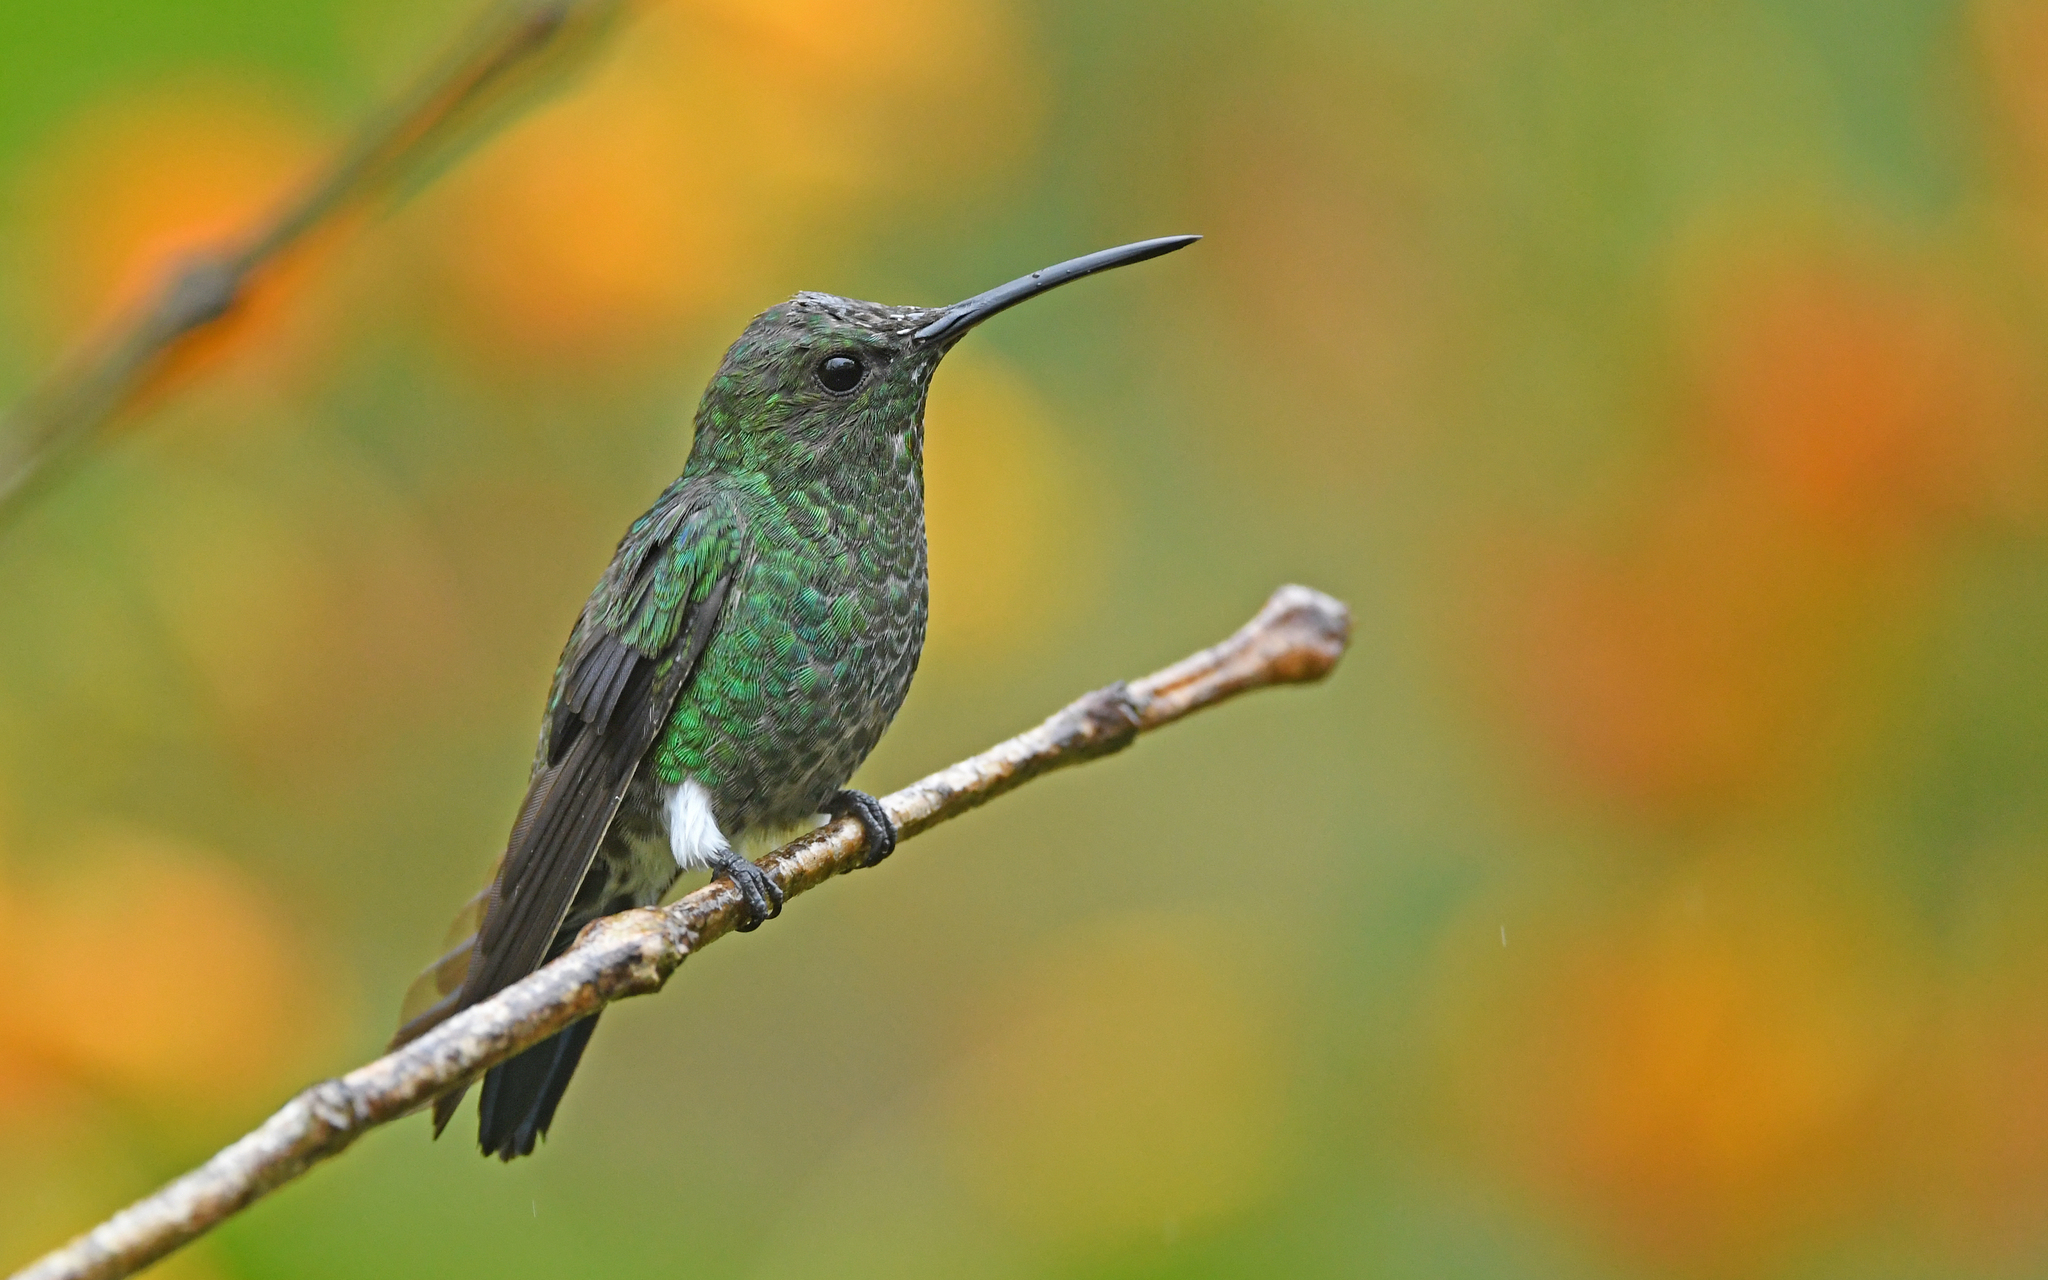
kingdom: Animalia
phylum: Chordata
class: Aves
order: Apodiformes
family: Trochilidae
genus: Chalybura
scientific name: Chalybura buffonii
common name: White-vented plumeleteer
